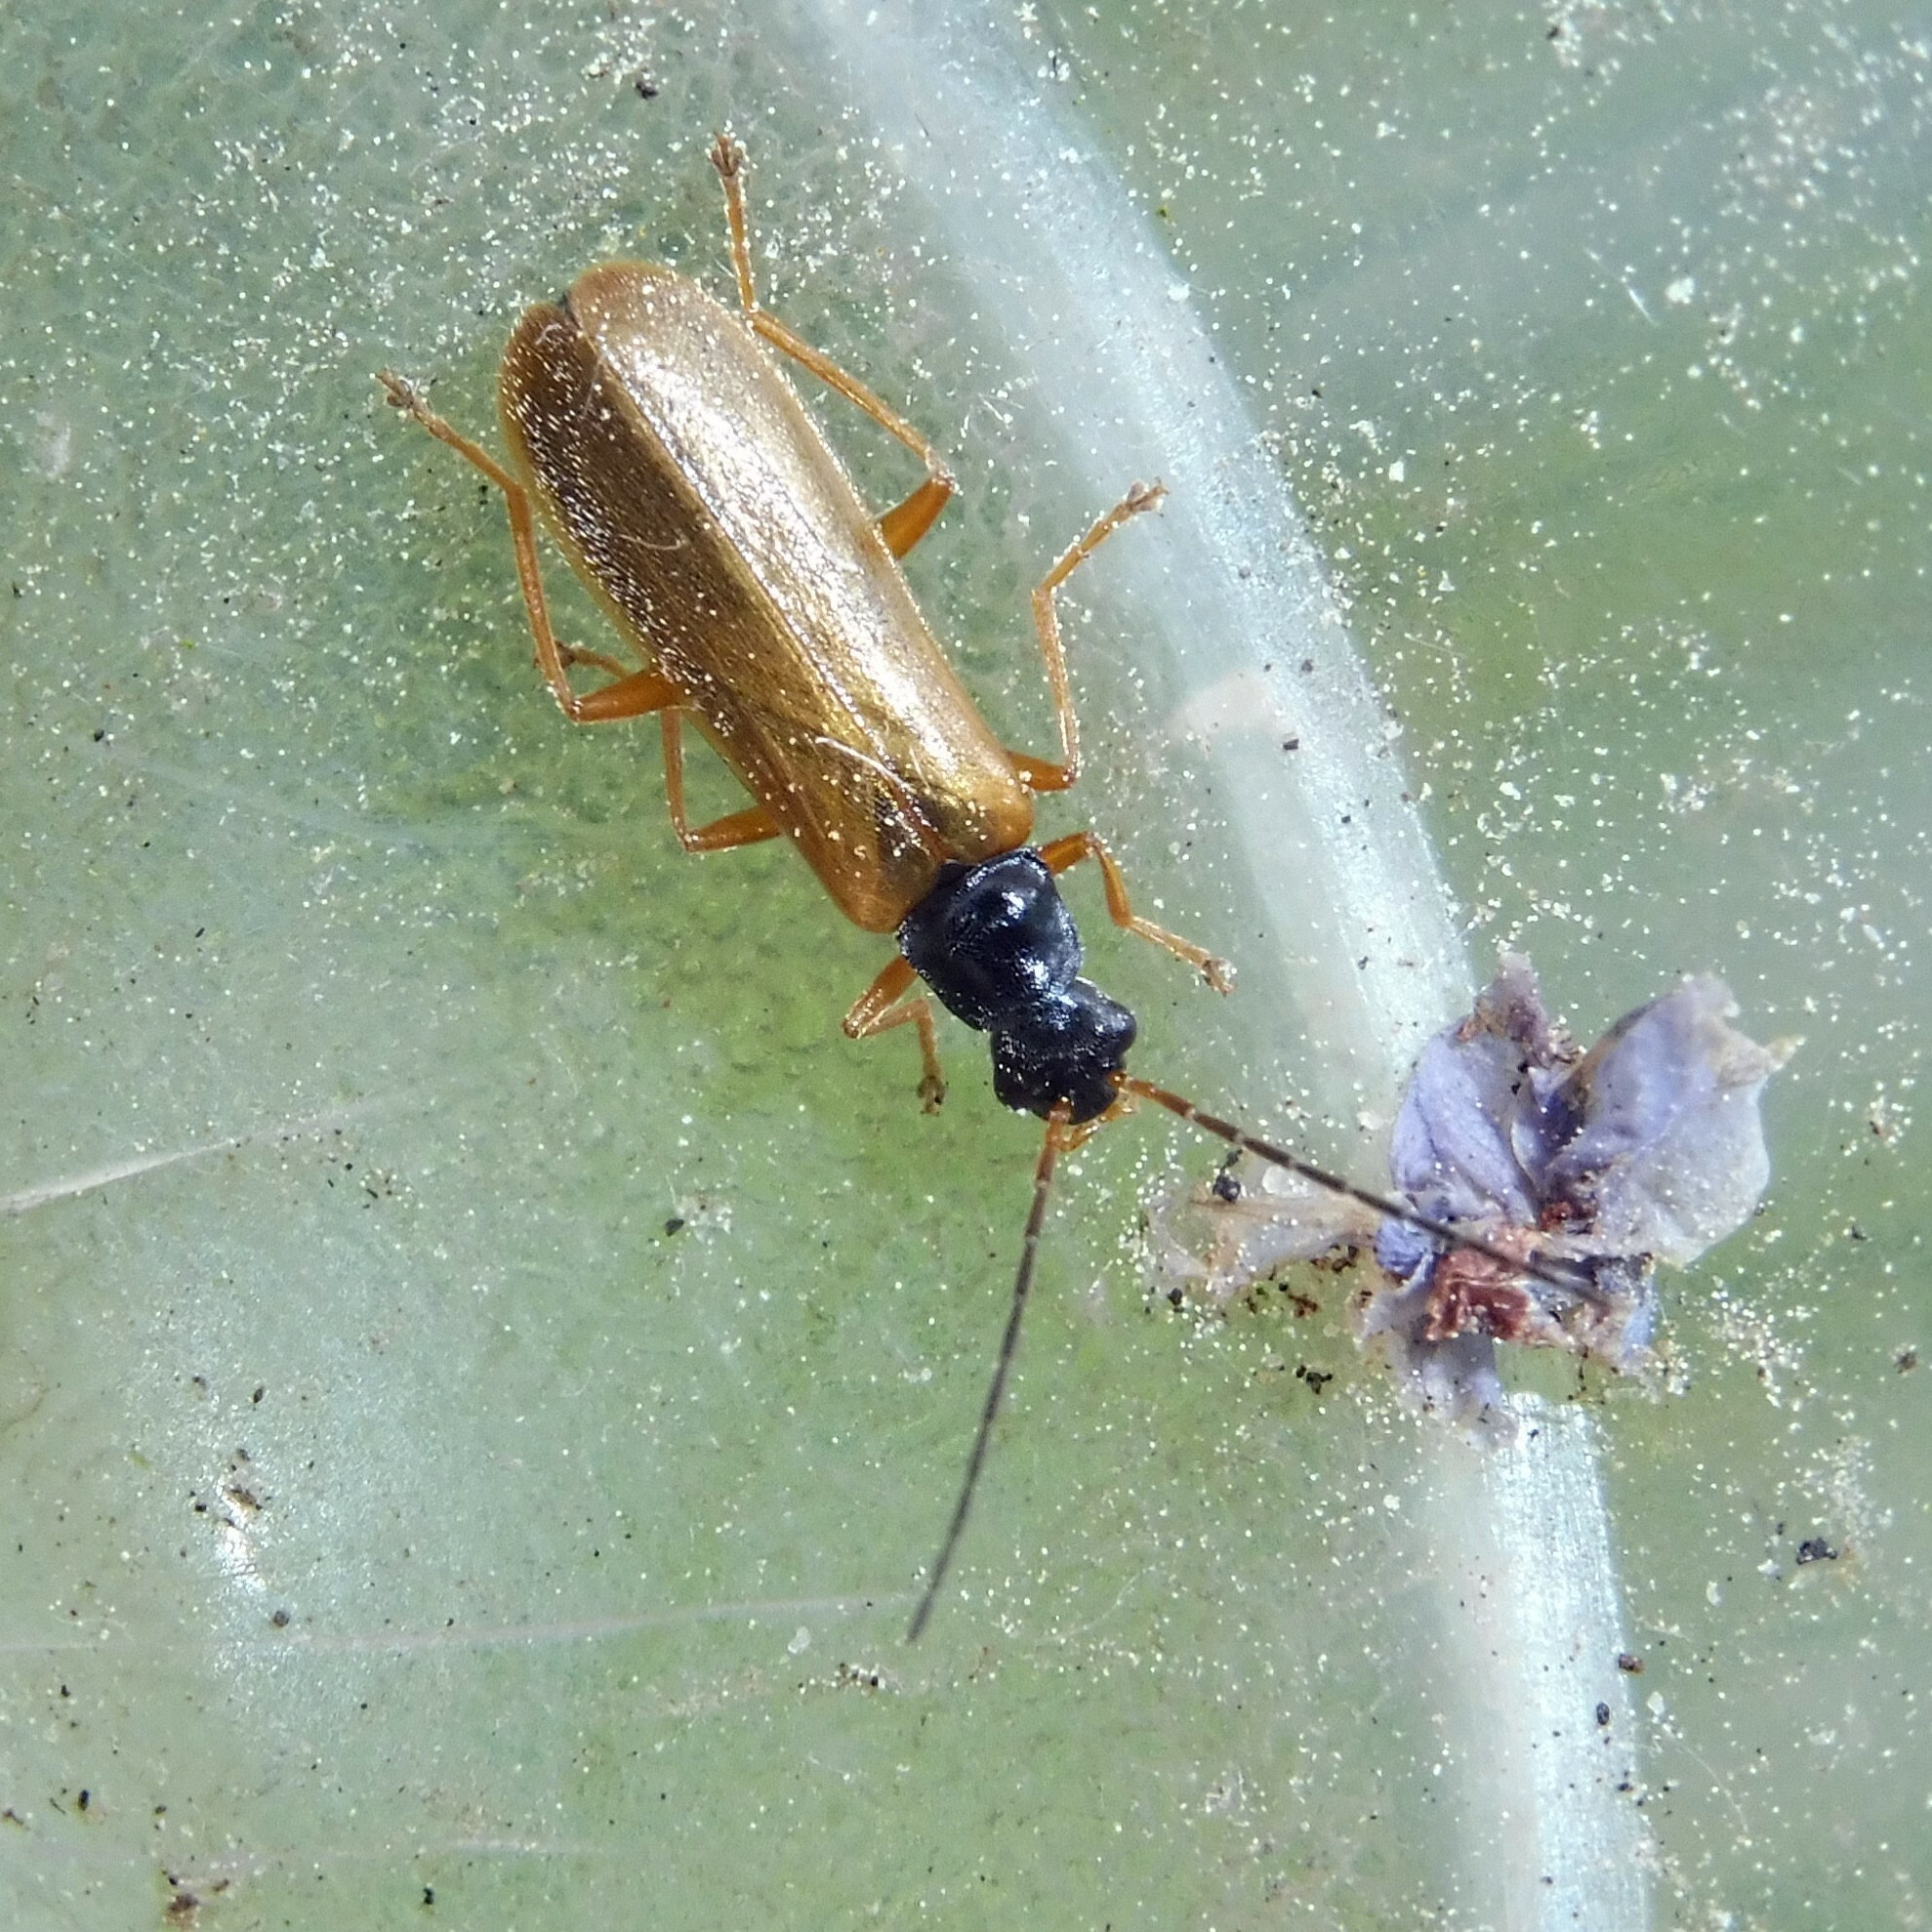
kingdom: Animalia
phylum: Arthropoda
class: Insecta
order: Coleoptera
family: Cantharidae
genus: Rhagonycha
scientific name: Rhagonycha lignosa
